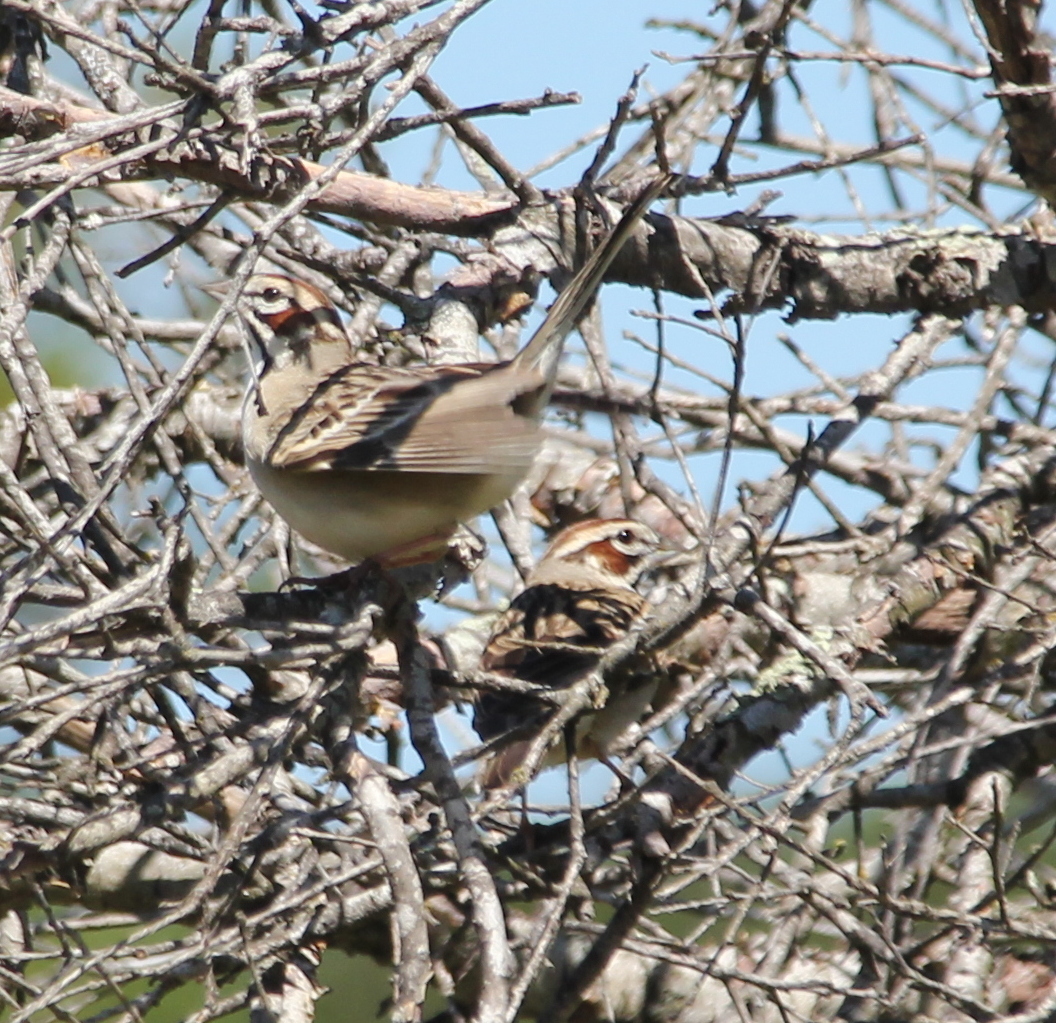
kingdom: Animalia
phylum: Chordata
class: Aves
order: Passeriformes
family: Passerellidae
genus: Chondestes
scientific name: Chondestes grammacus
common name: Lark sparrow
